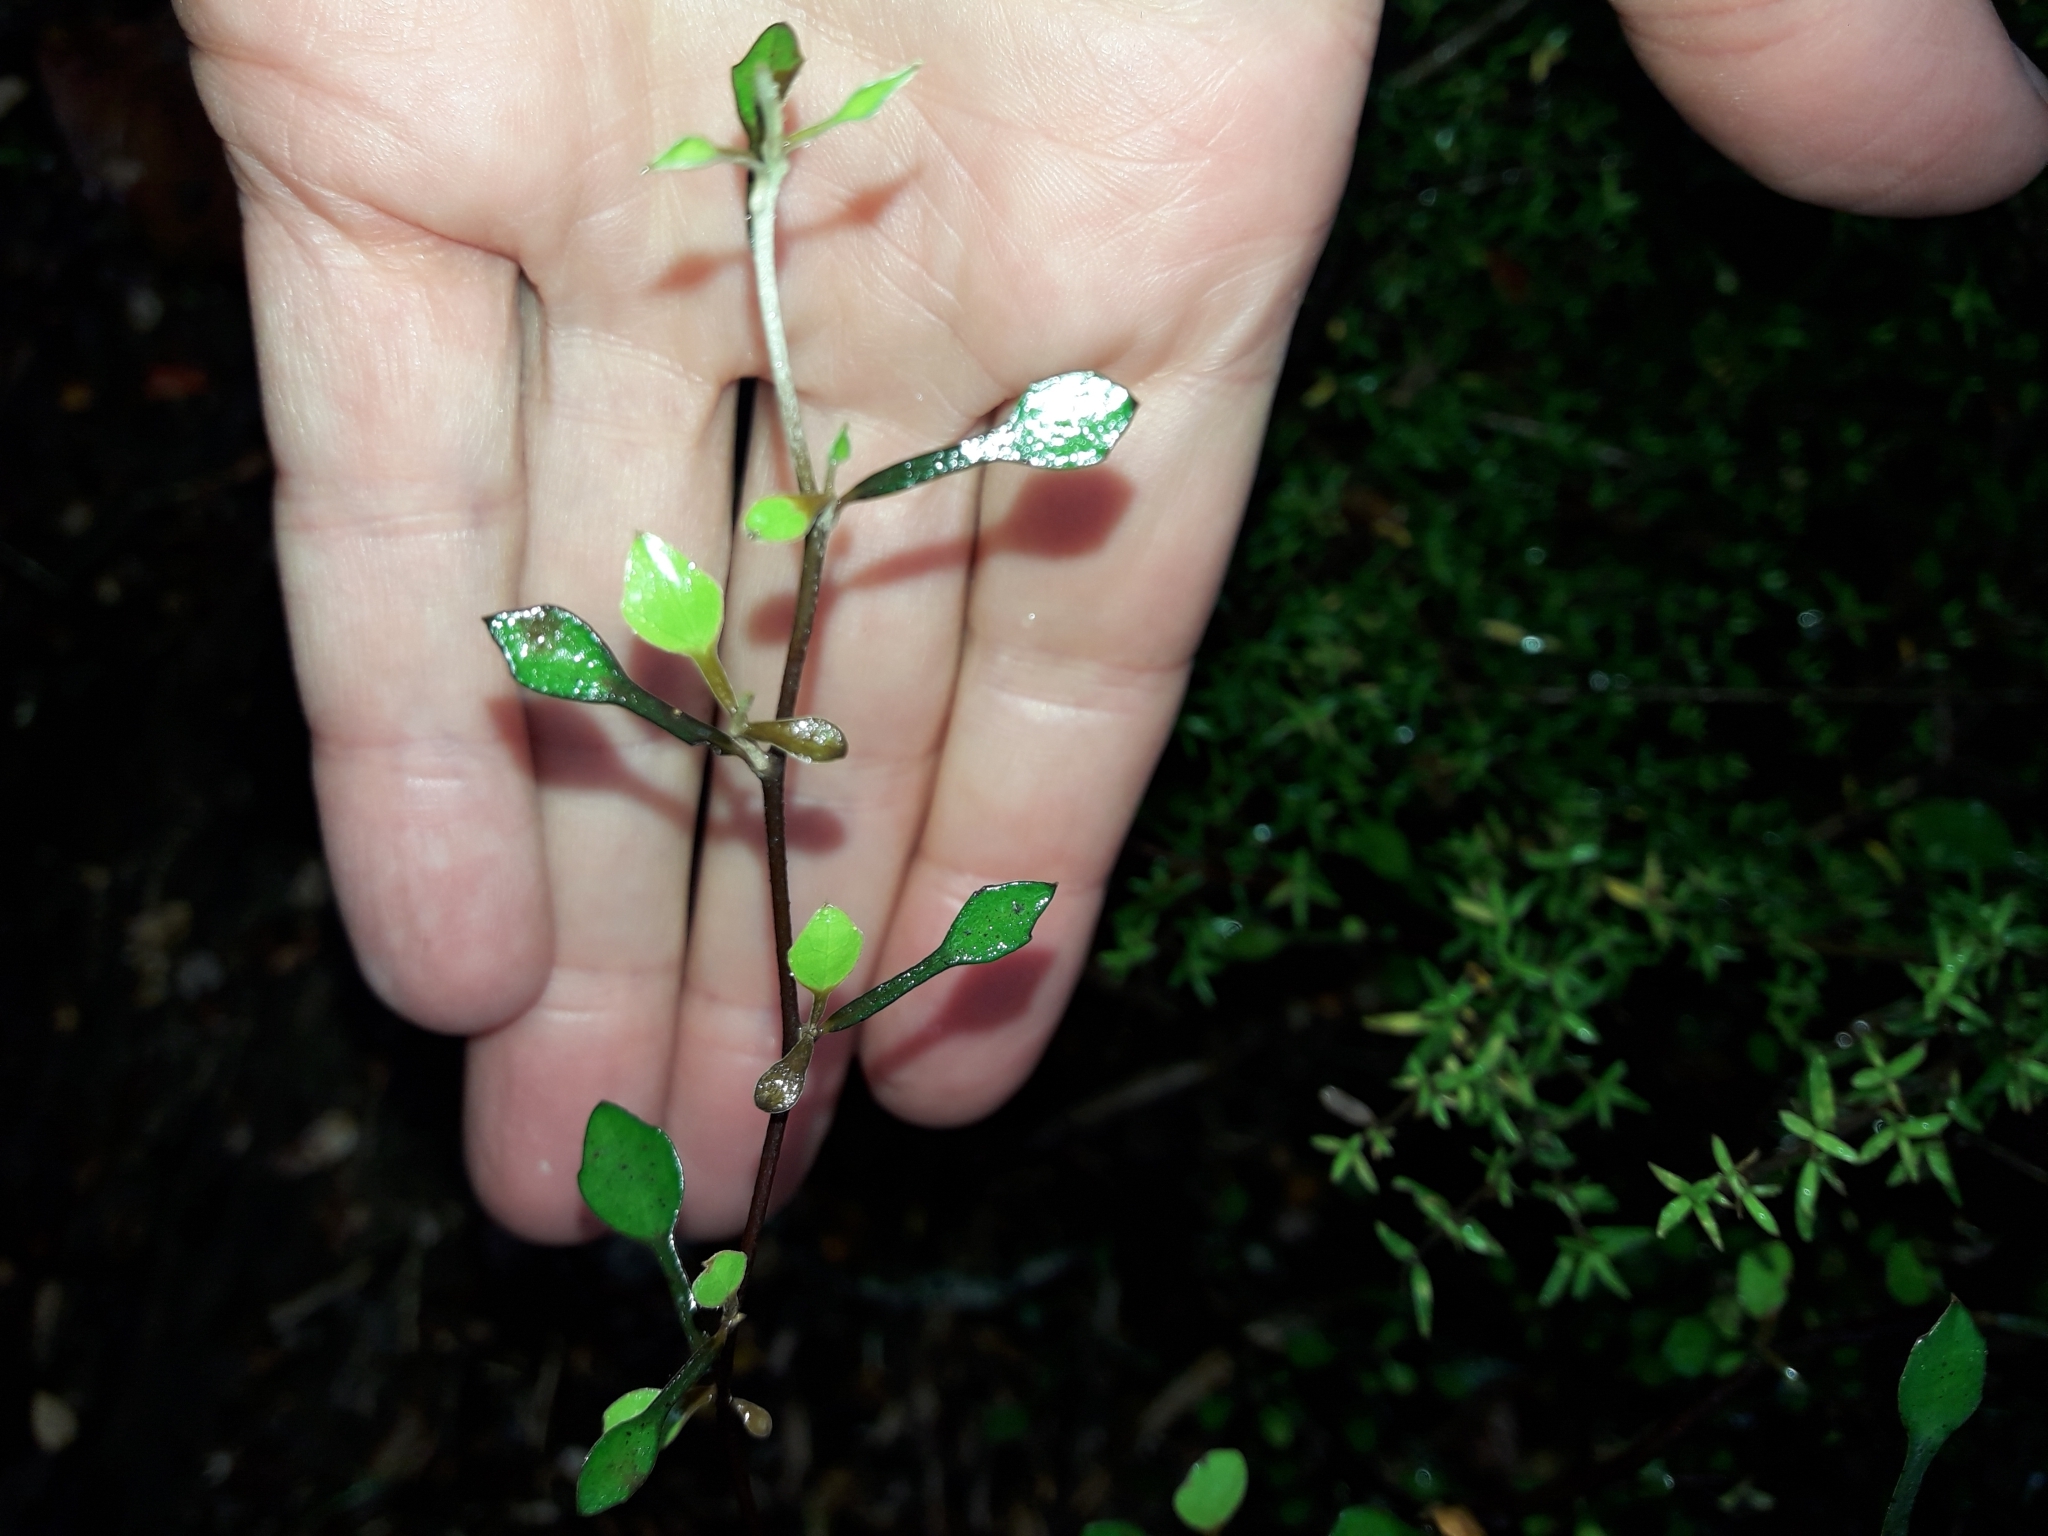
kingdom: Plantae
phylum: Tracheophyta
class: Magnoliopsida
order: Asterales
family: Argophyllaceae
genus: Corokia
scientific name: Corokia cotoneaster
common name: Wire nettingbush
